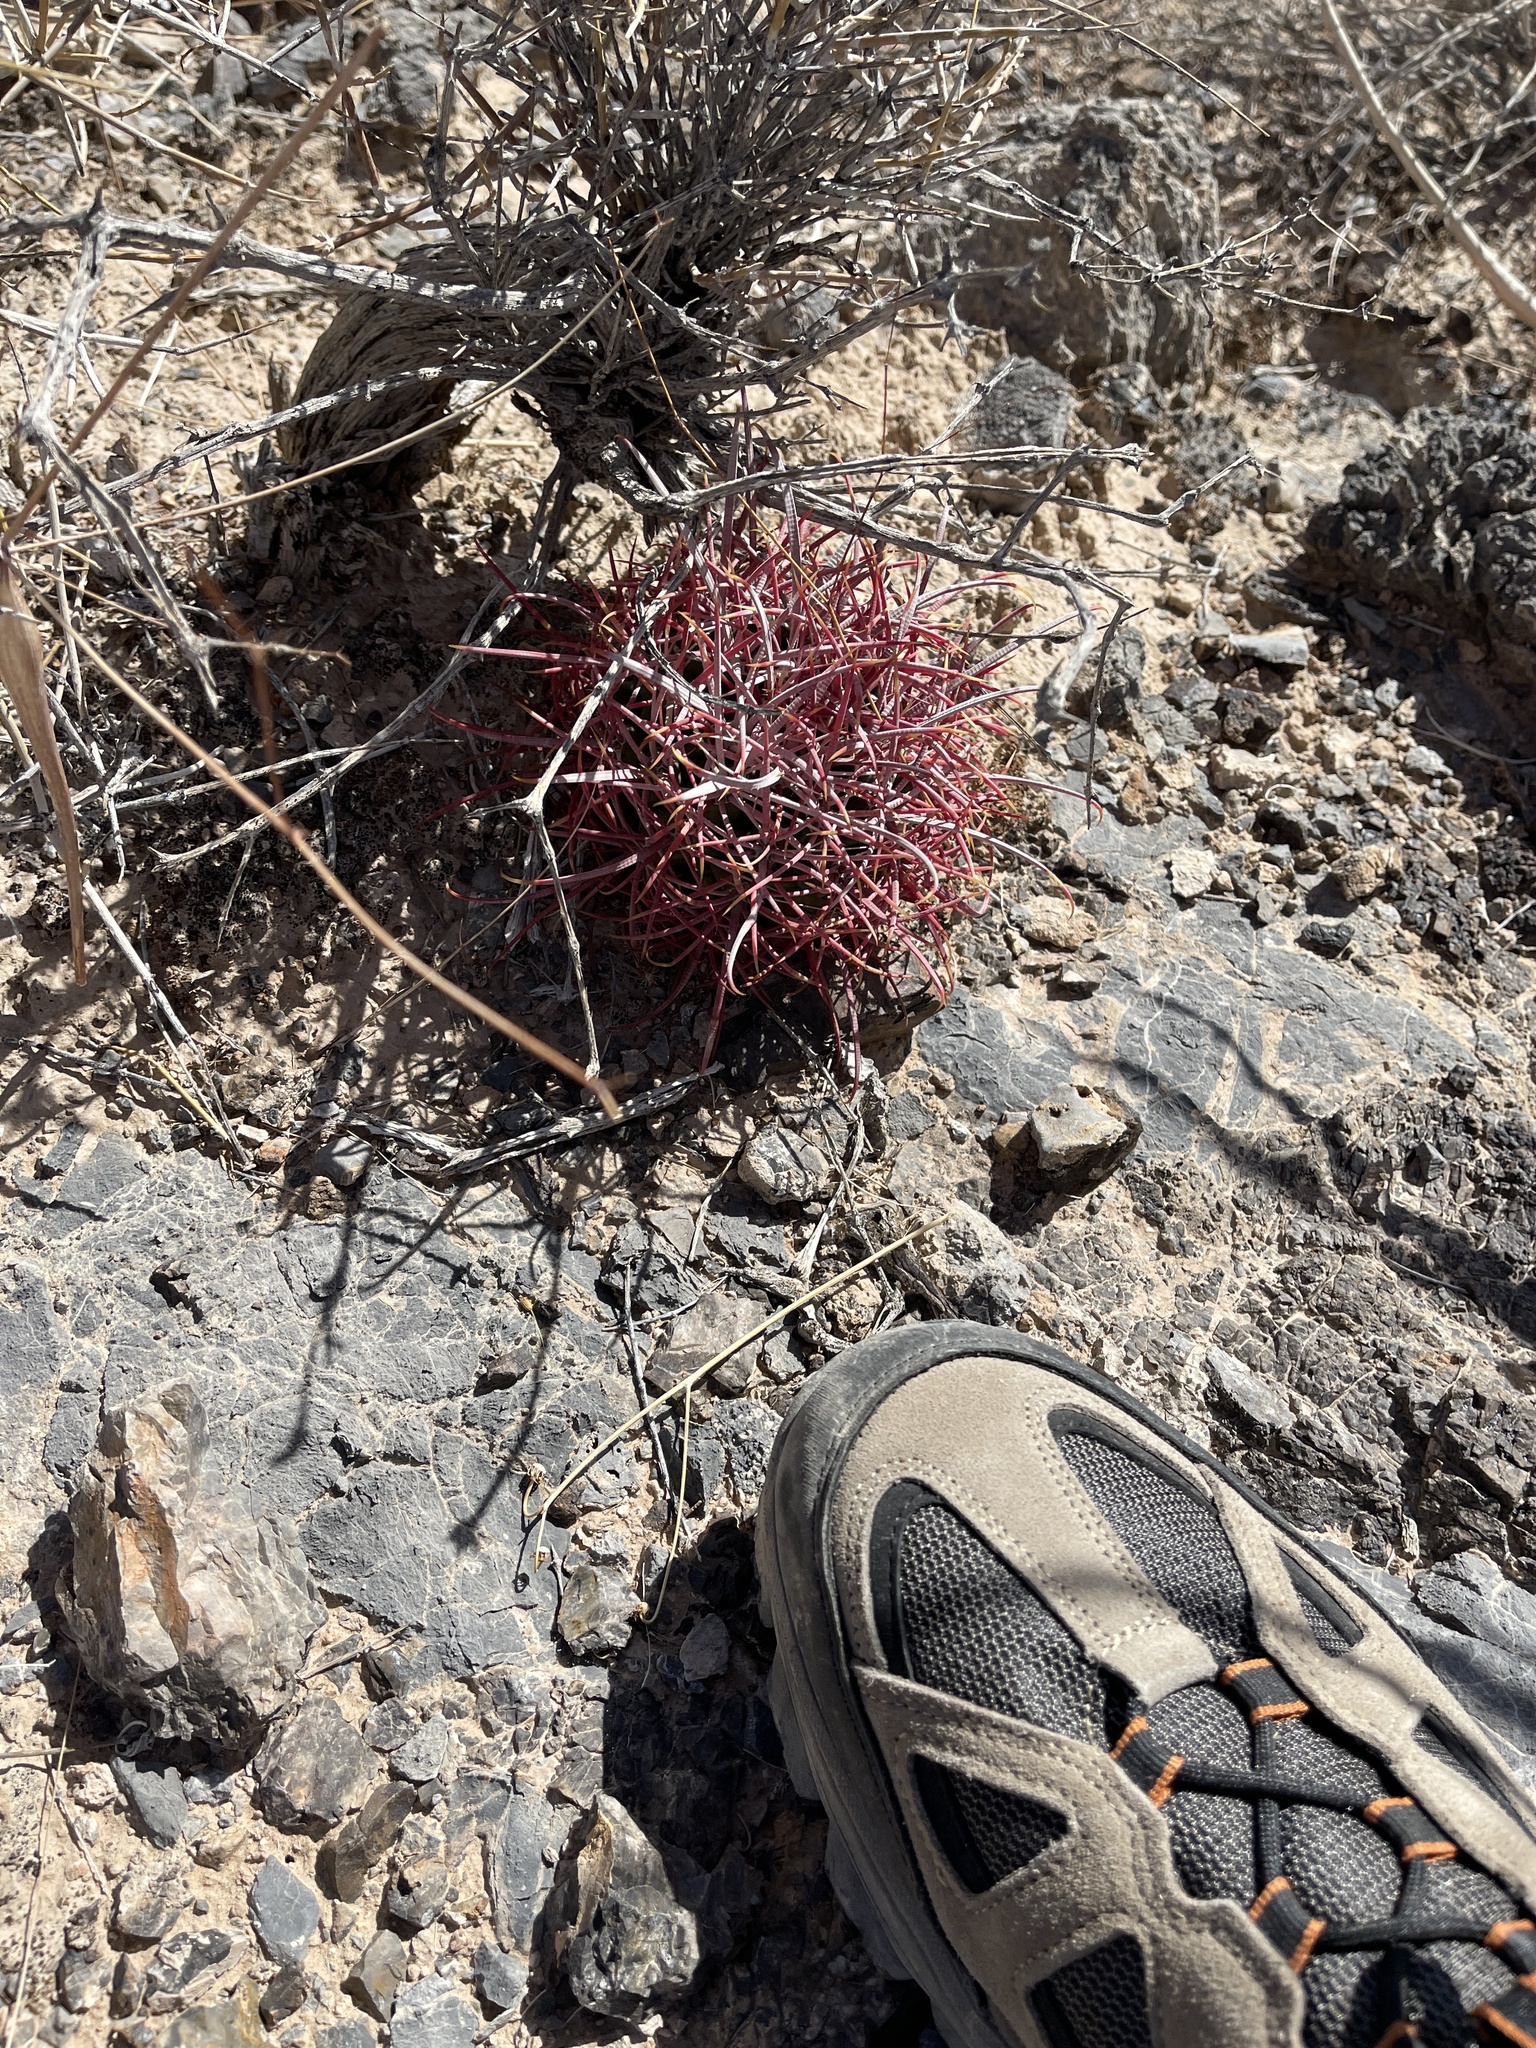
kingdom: Plantae
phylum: Tracheophyta
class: Magnoliopsida
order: Caryophyllales
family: Cactaceae
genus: Ferocactus
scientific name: Ferocactus cylindraceus
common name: California barrel cactus
